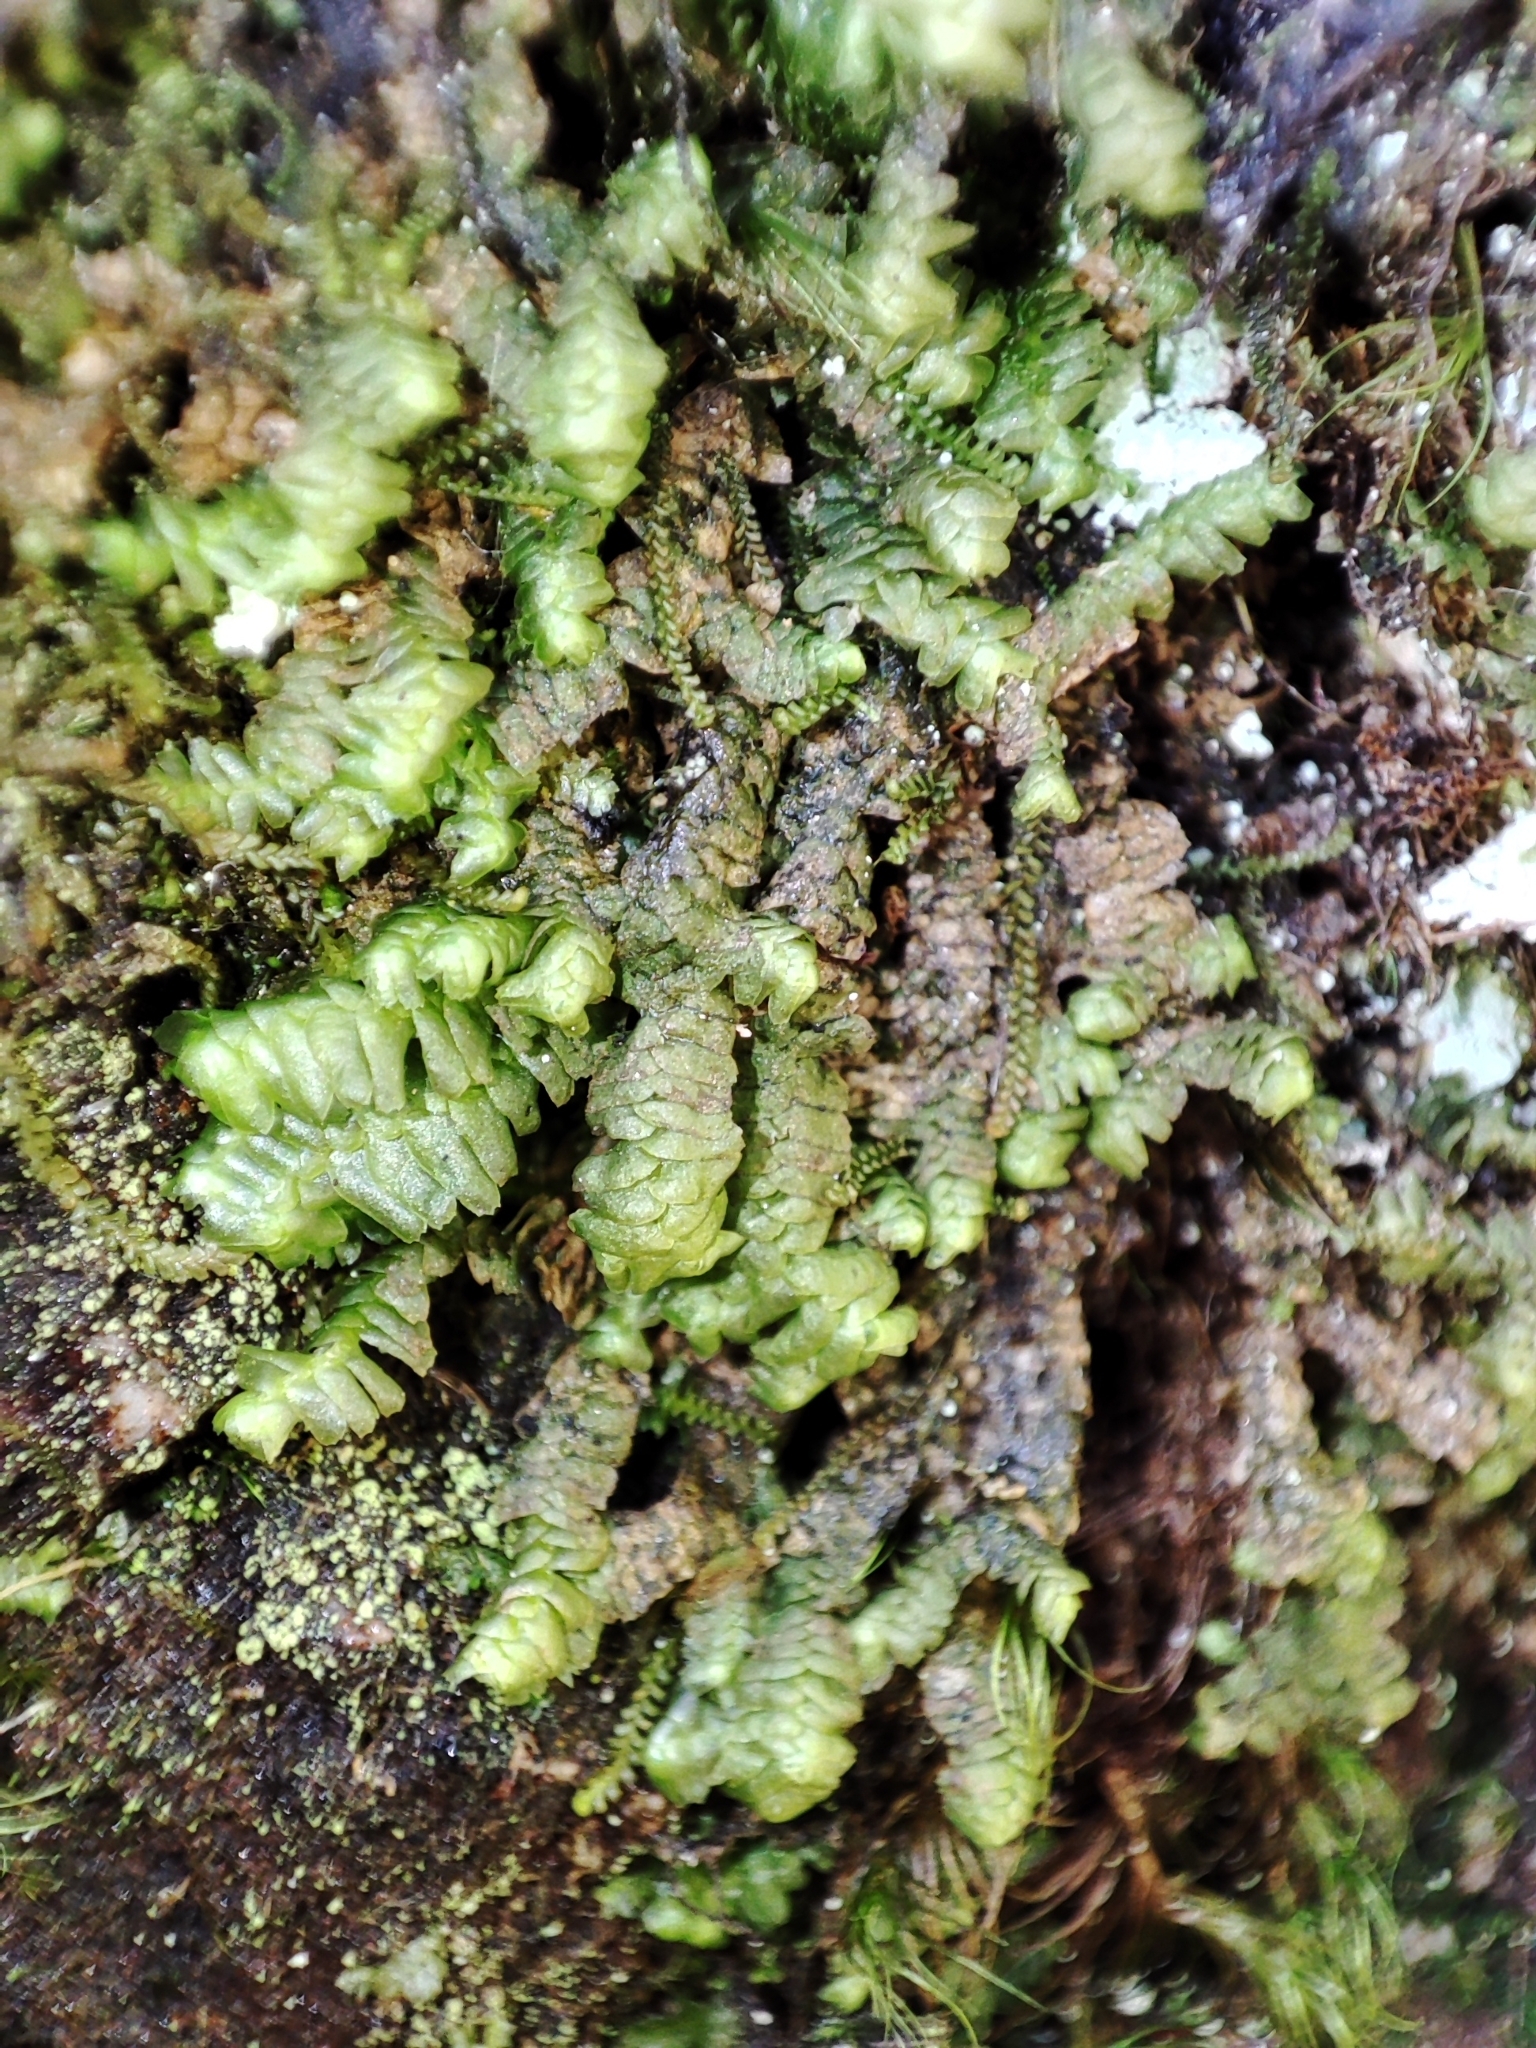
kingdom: Plantae
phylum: Marchantiophyta
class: Jungermanniopsida
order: Jungermanniales
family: Lepidoziaceae
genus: Bazzania
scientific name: Bazzania trilobata
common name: Three-lobed whipwort
